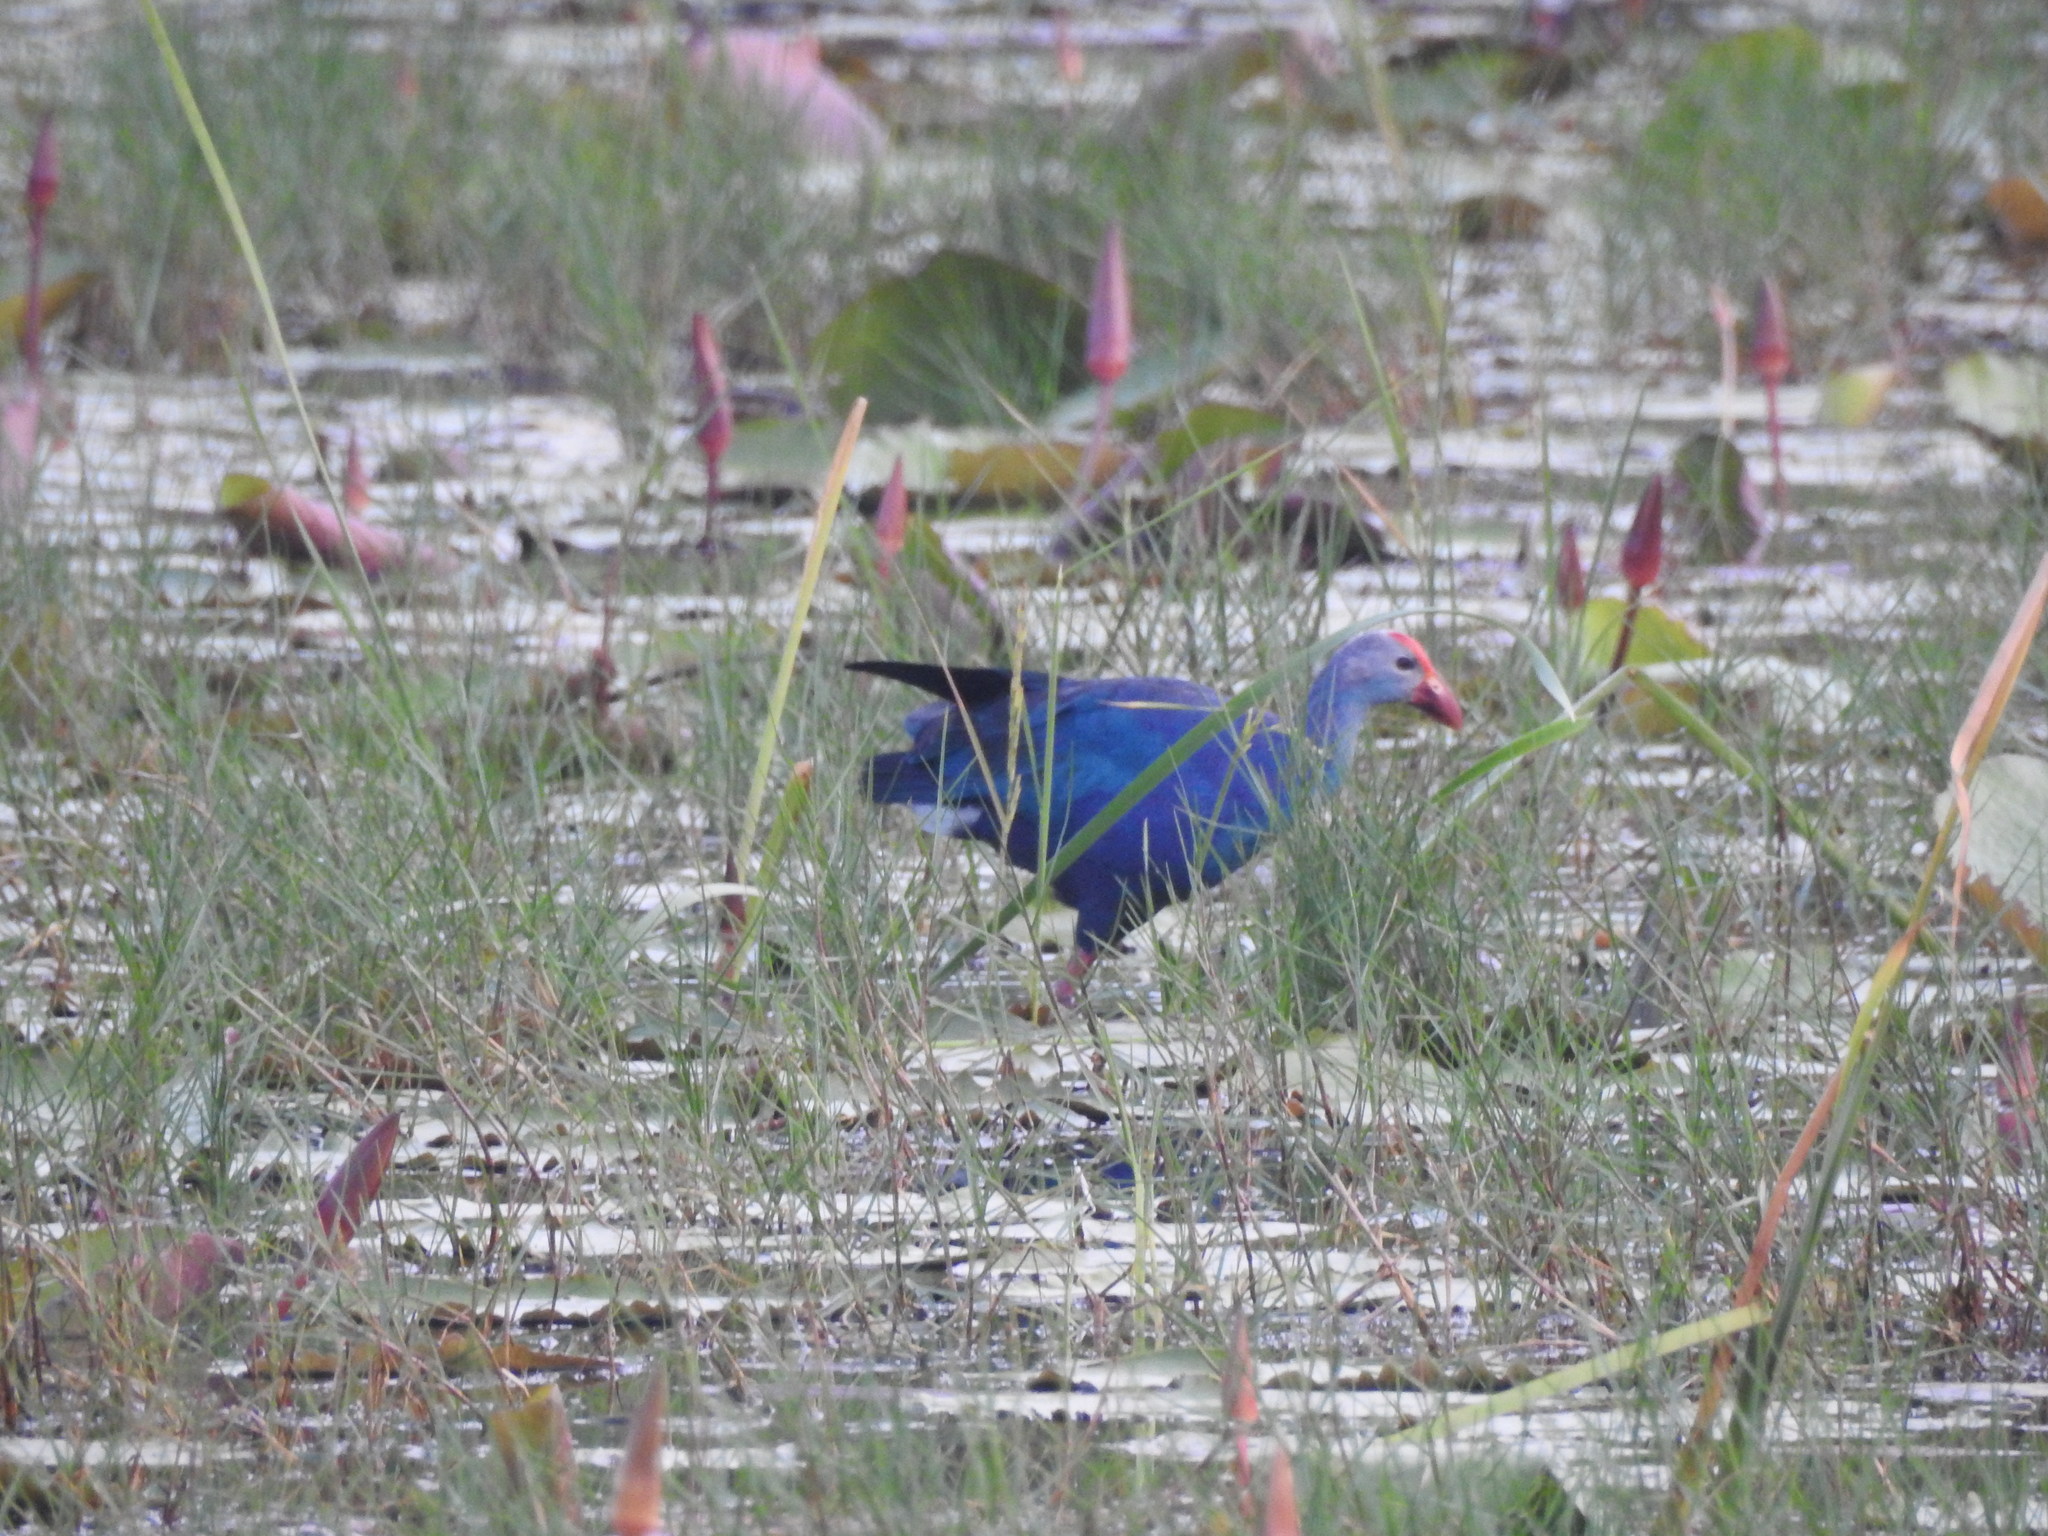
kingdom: Animalia
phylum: Chordata
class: Aves
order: Gruiformes
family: Rallidae
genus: Porphyrio
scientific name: Porphyrio porphyrio
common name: Purple swamphen
